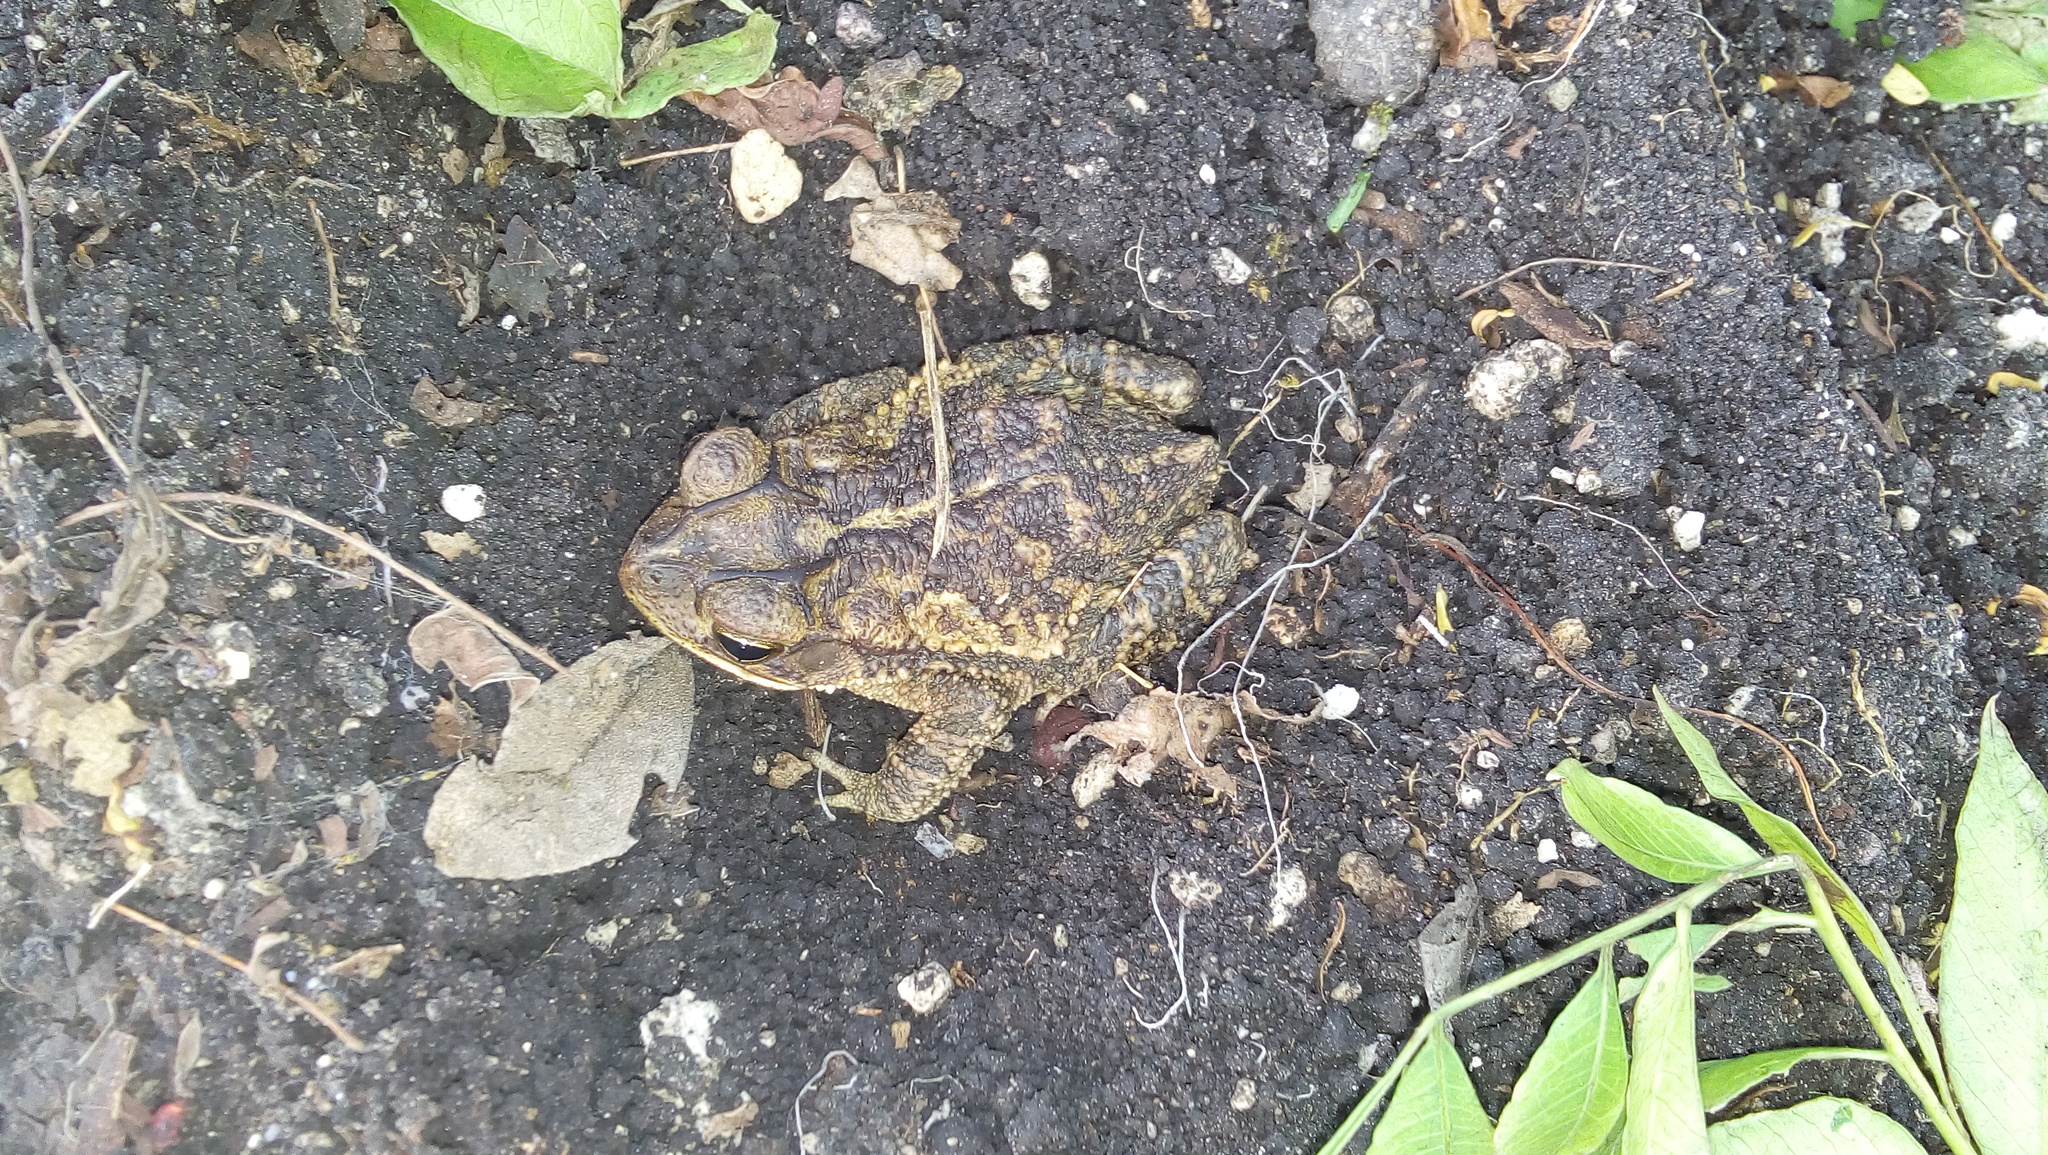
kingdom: Animalia
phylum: Chordata
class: Amphibia
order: Anura
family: Bufonidae
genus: Incilius
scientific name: Incilius valliceps
